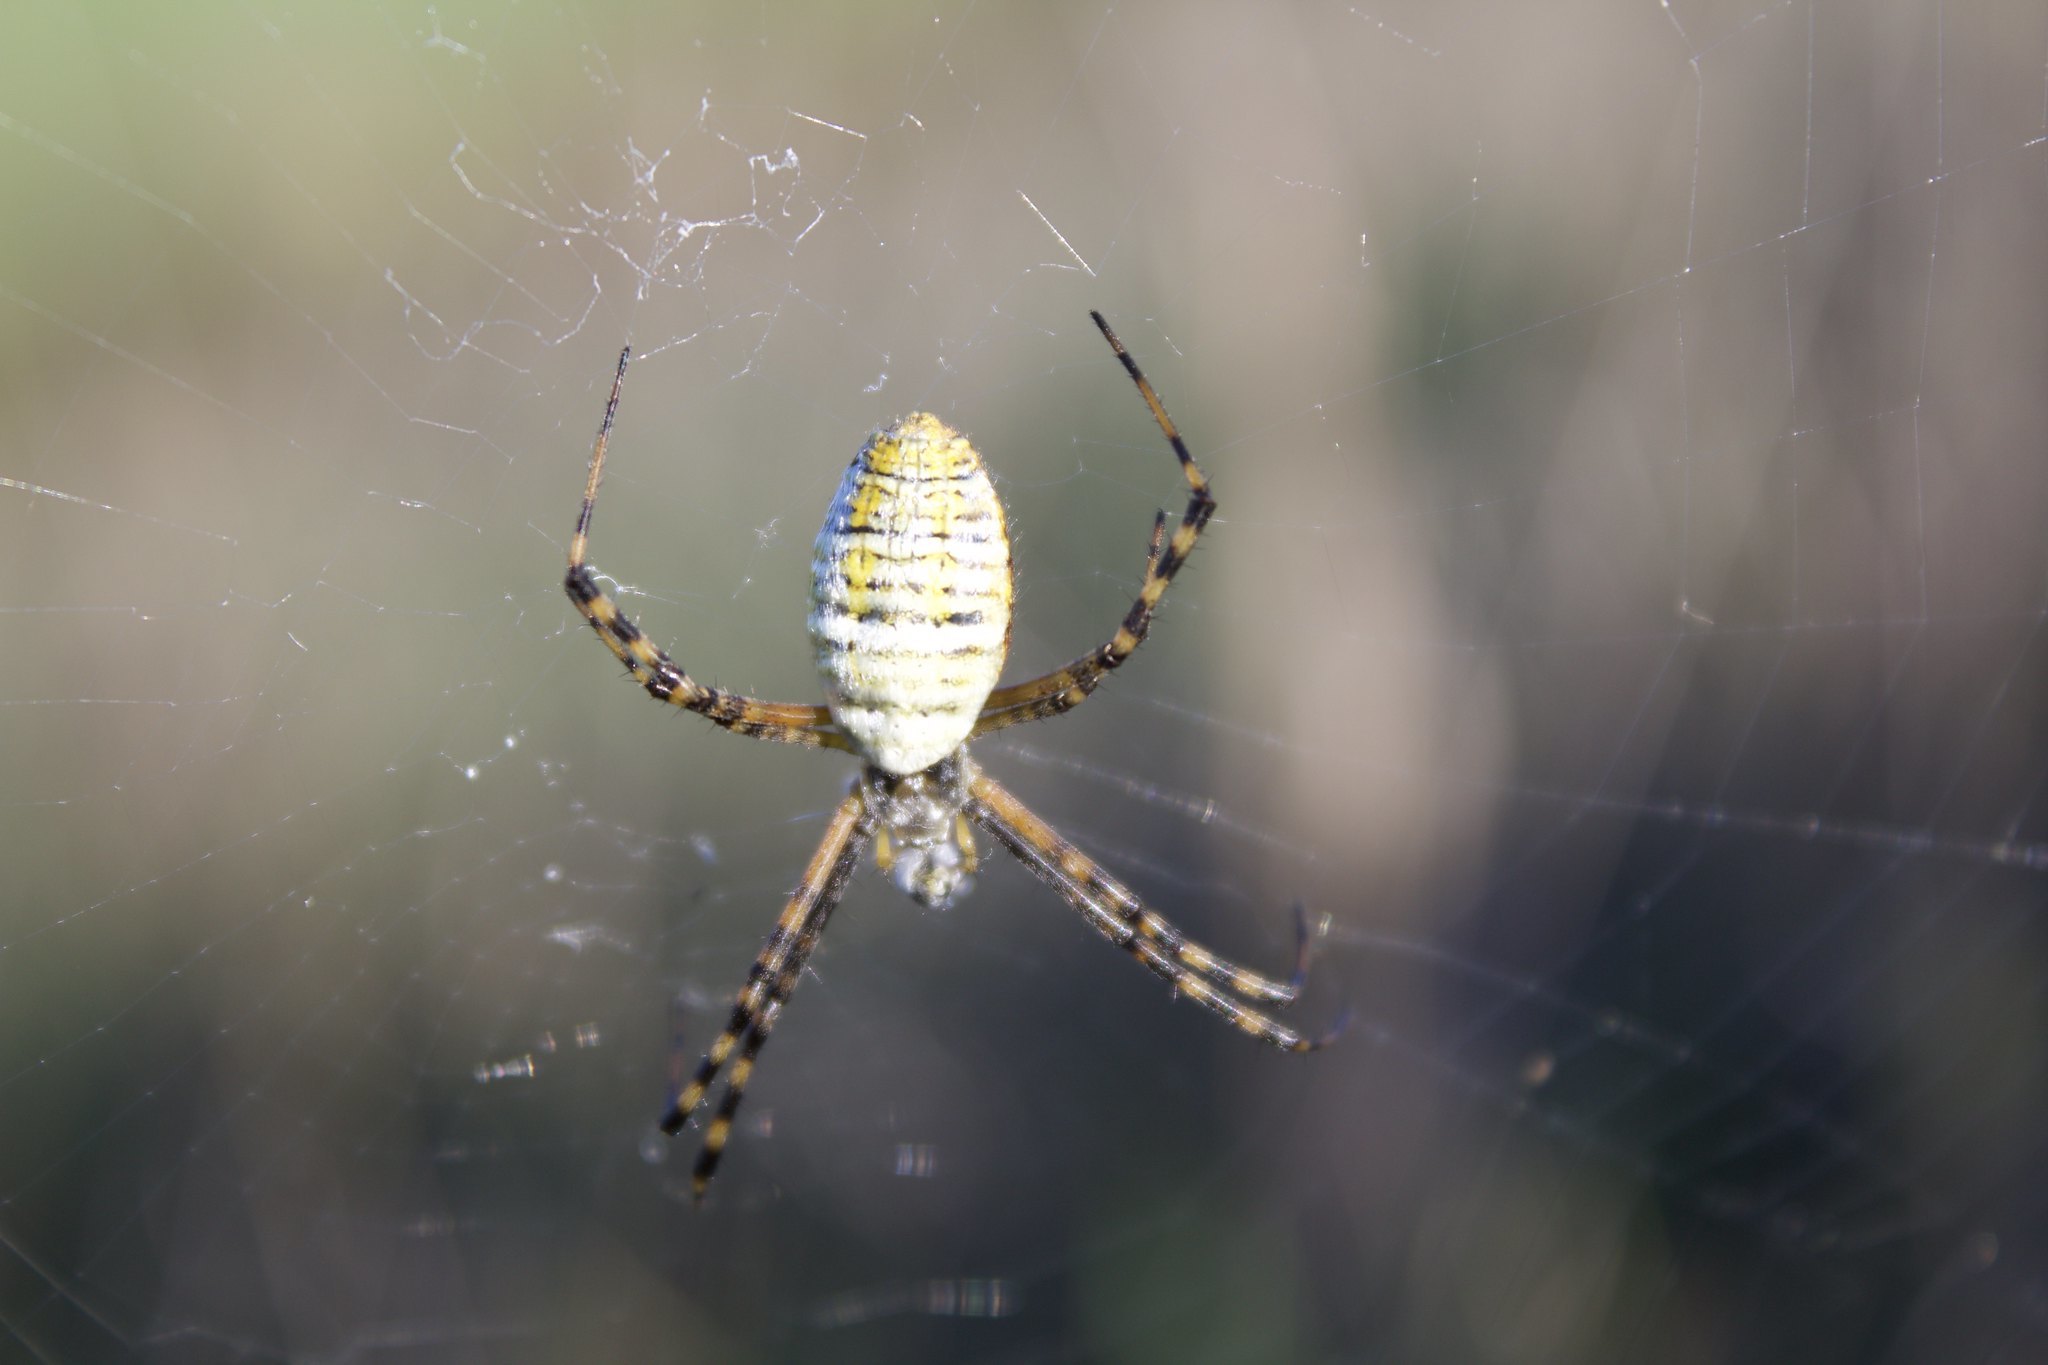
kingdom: Animalia
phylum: Arthropoda
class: Arachnida
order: Araneae
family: Araneidae
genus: Argiope
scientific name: Argiope trifasciata
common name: Banded garden spider
